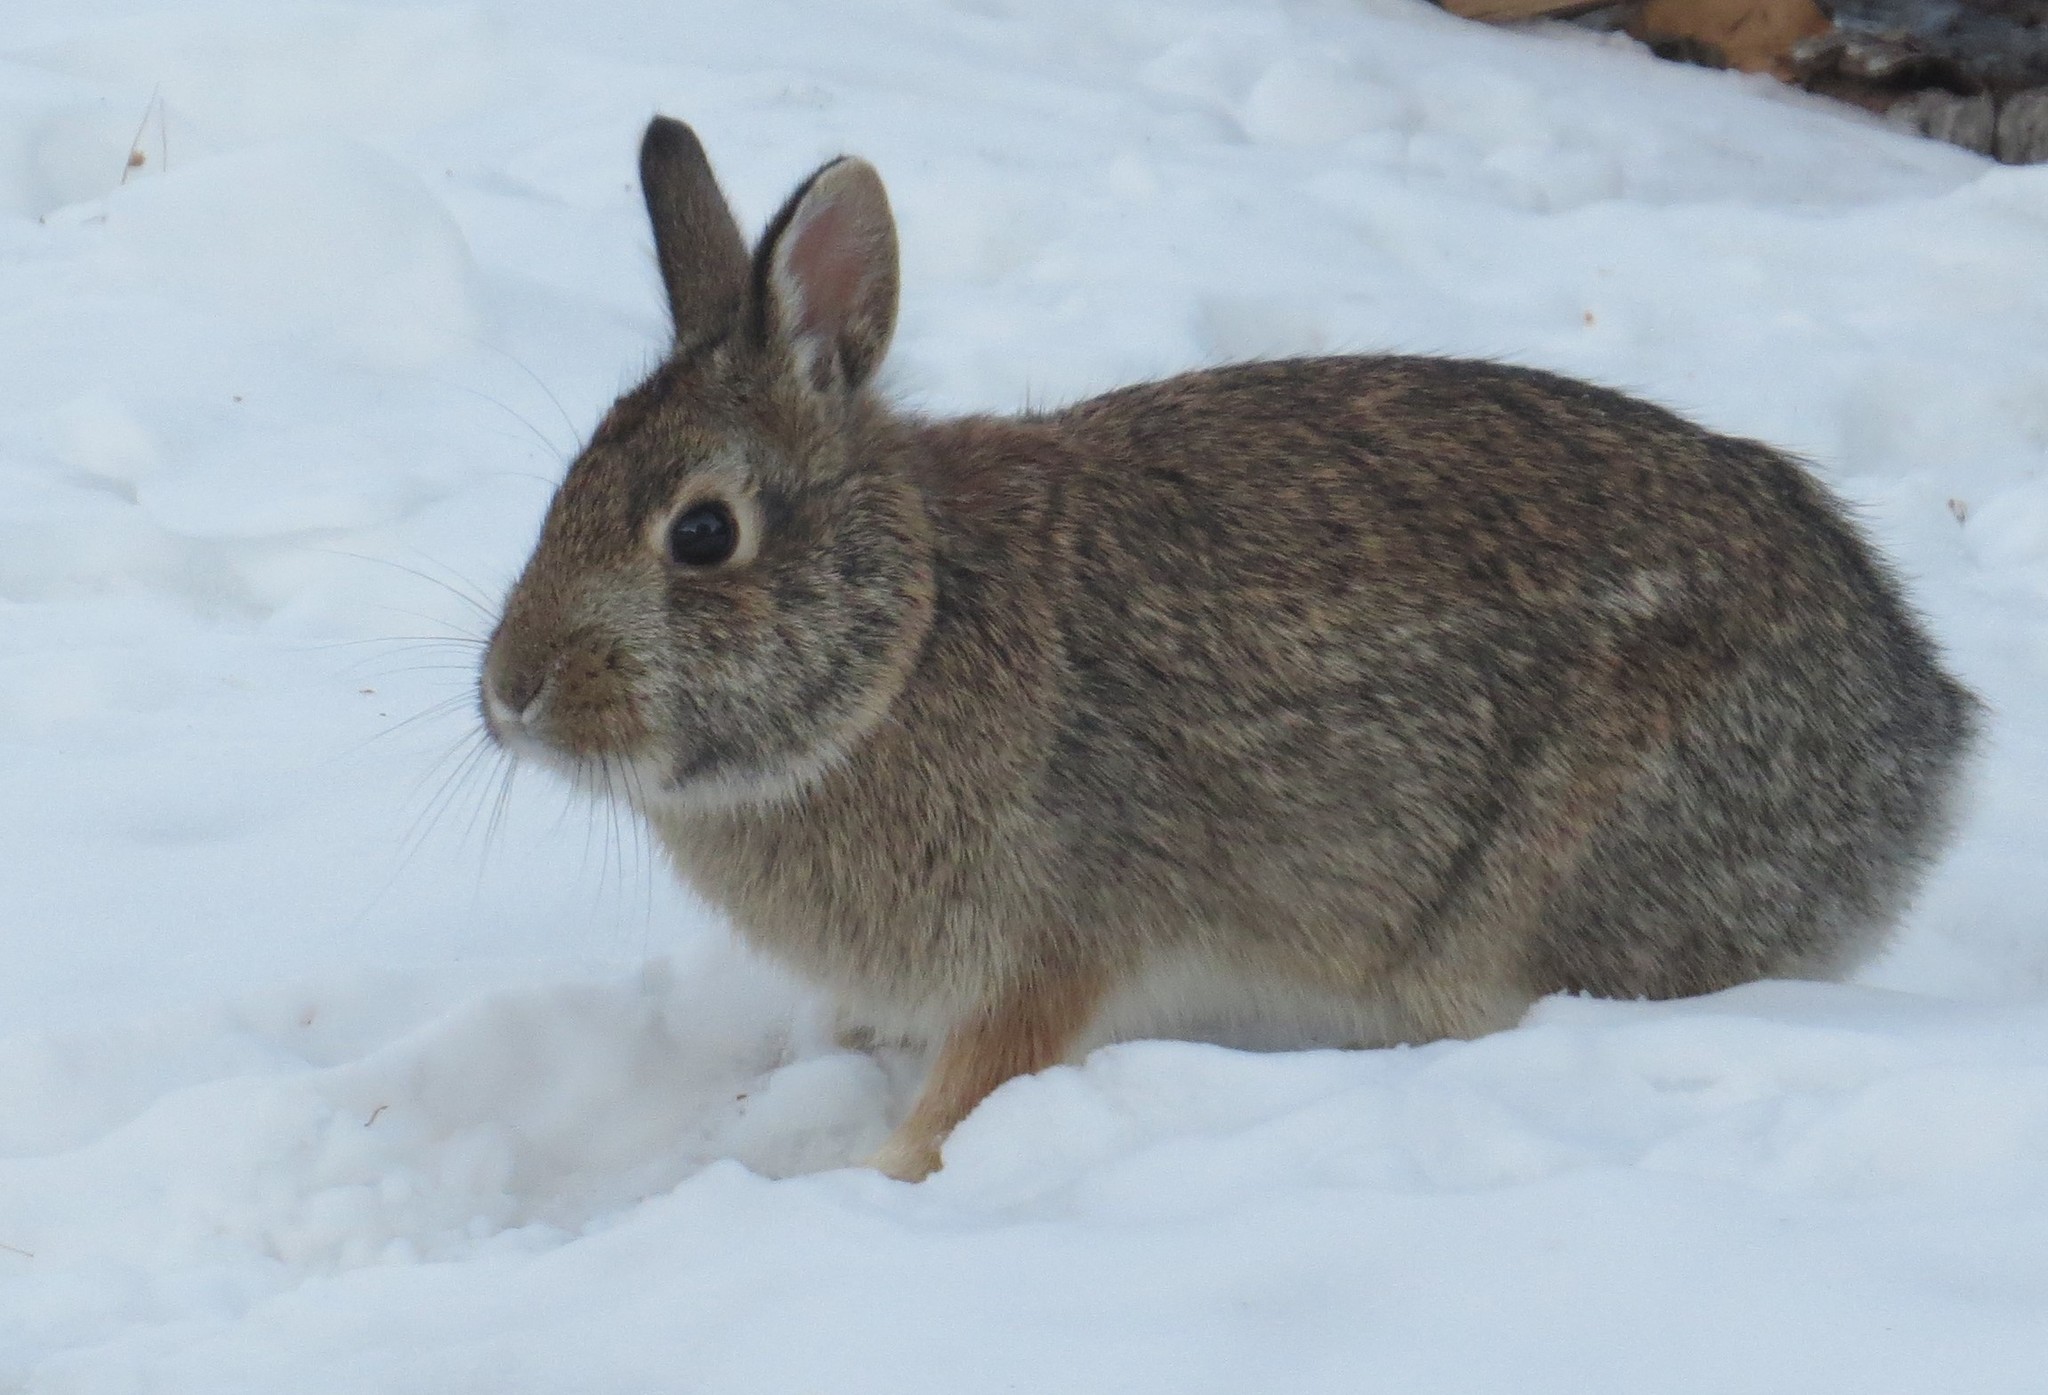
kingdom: Animalia
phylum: Chordata
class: Mammalia
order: Lagomorpha
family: Leporidae
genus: Sylvilagus
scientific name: Sylvilagus floridanus
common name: Eastern cottontail
